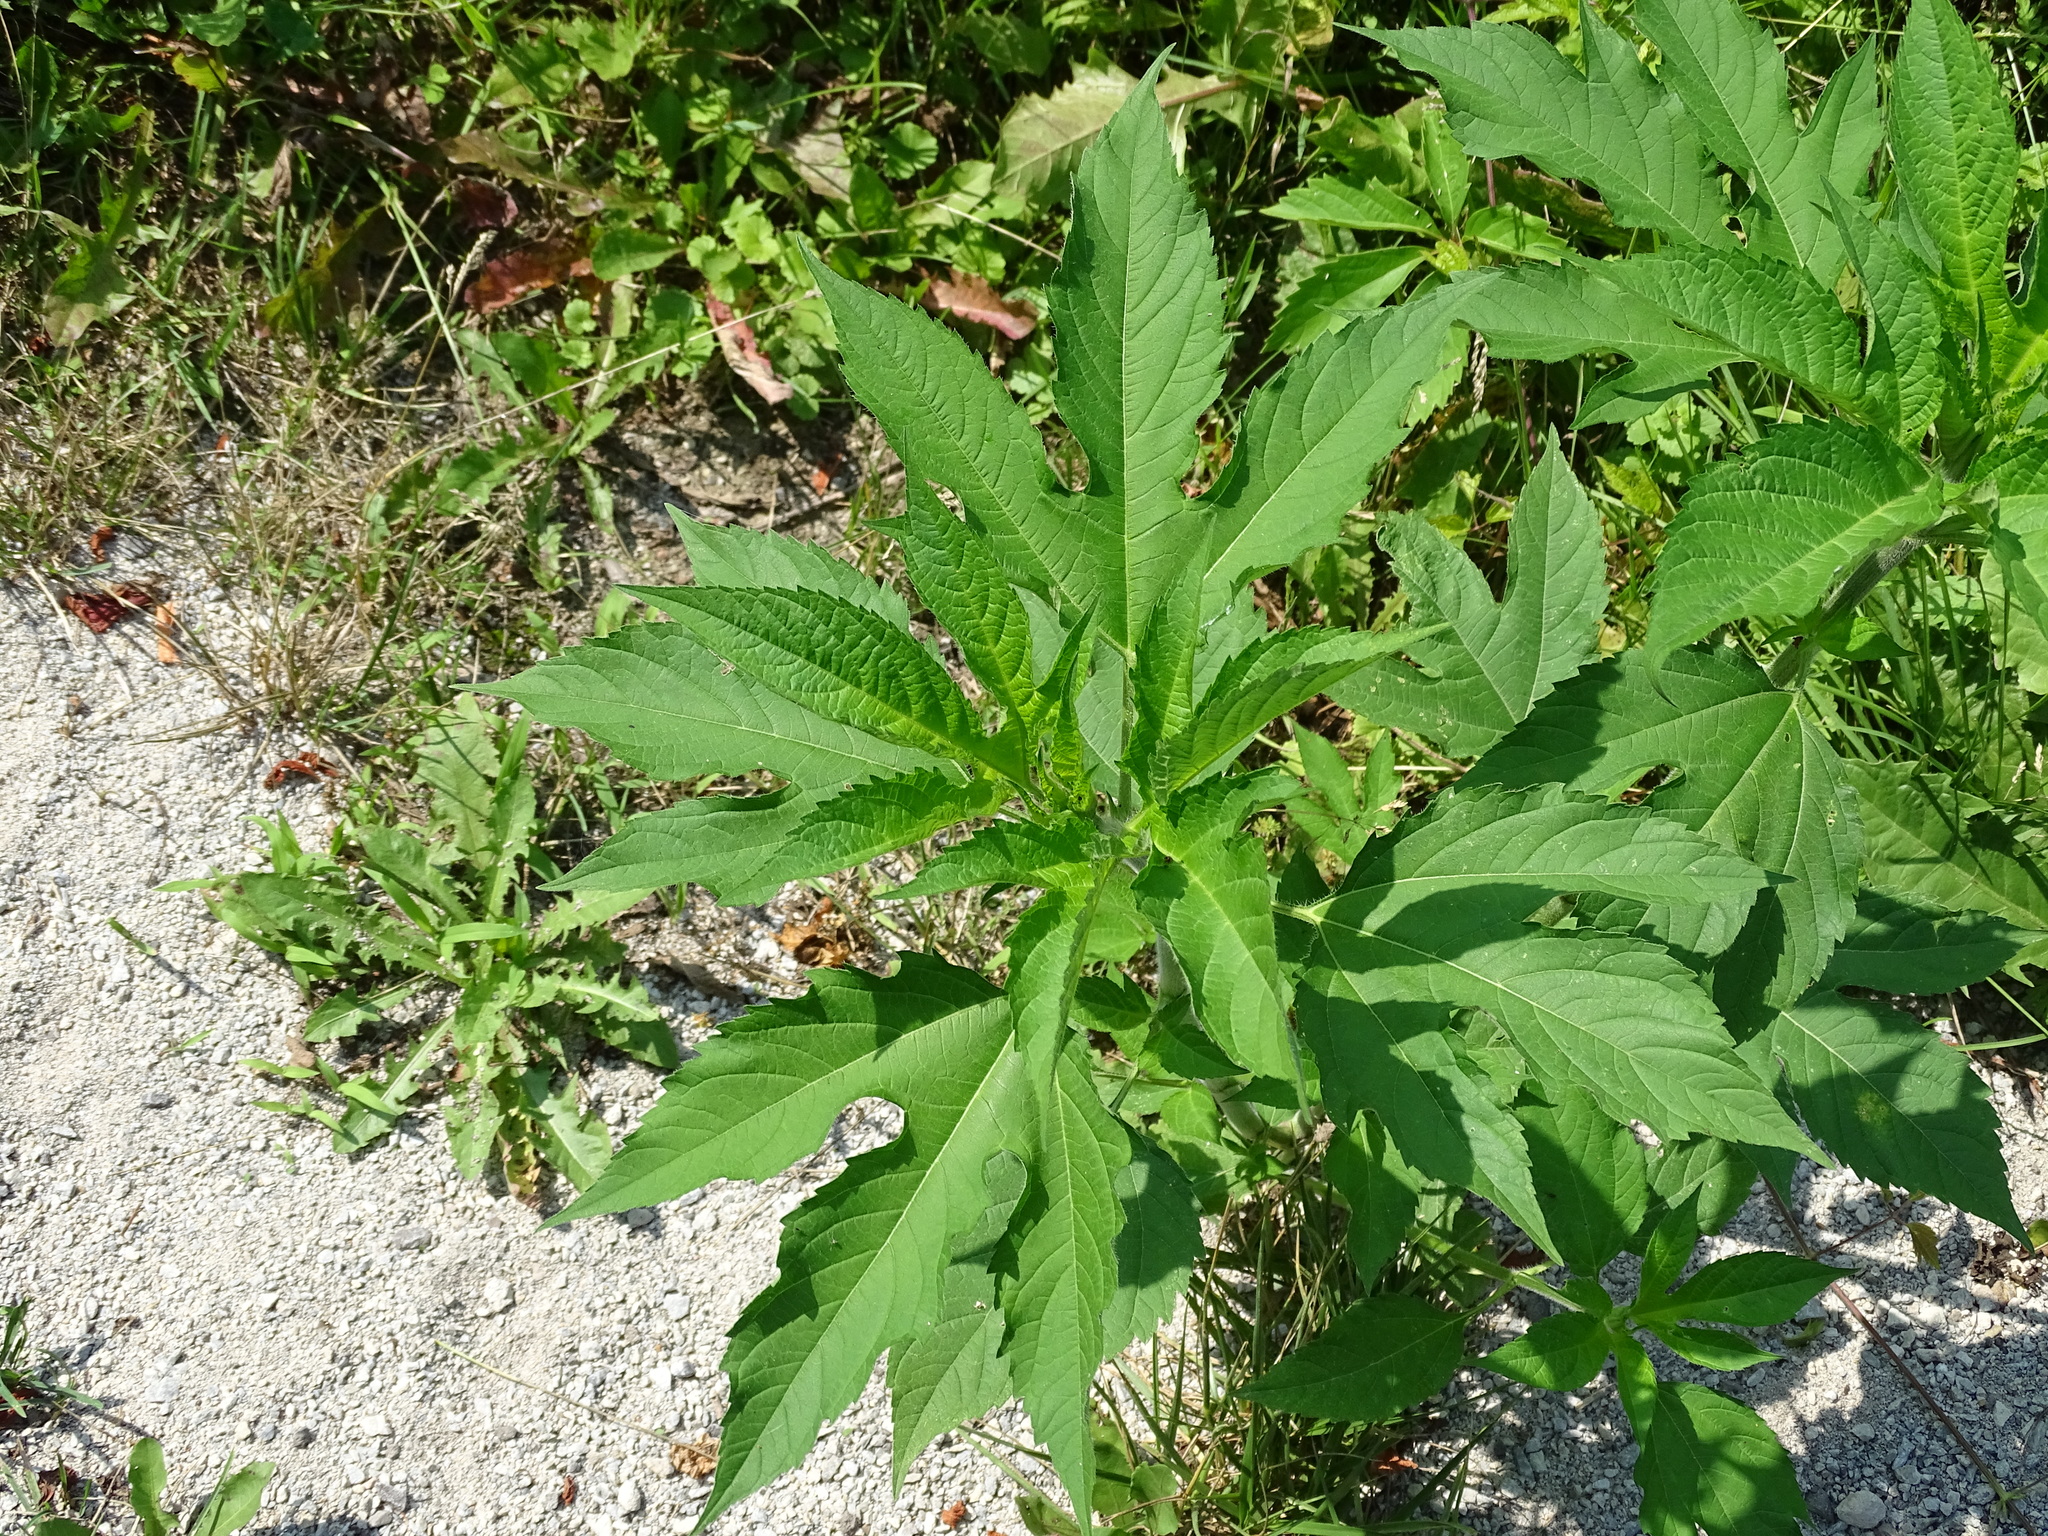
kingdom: Plantae
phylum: Tracheophyta
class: Magnoliopsida
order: Asterales
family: Asteraceae
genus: Ambrosia
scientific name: Ambrosia trifida
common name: Giant ragweed
